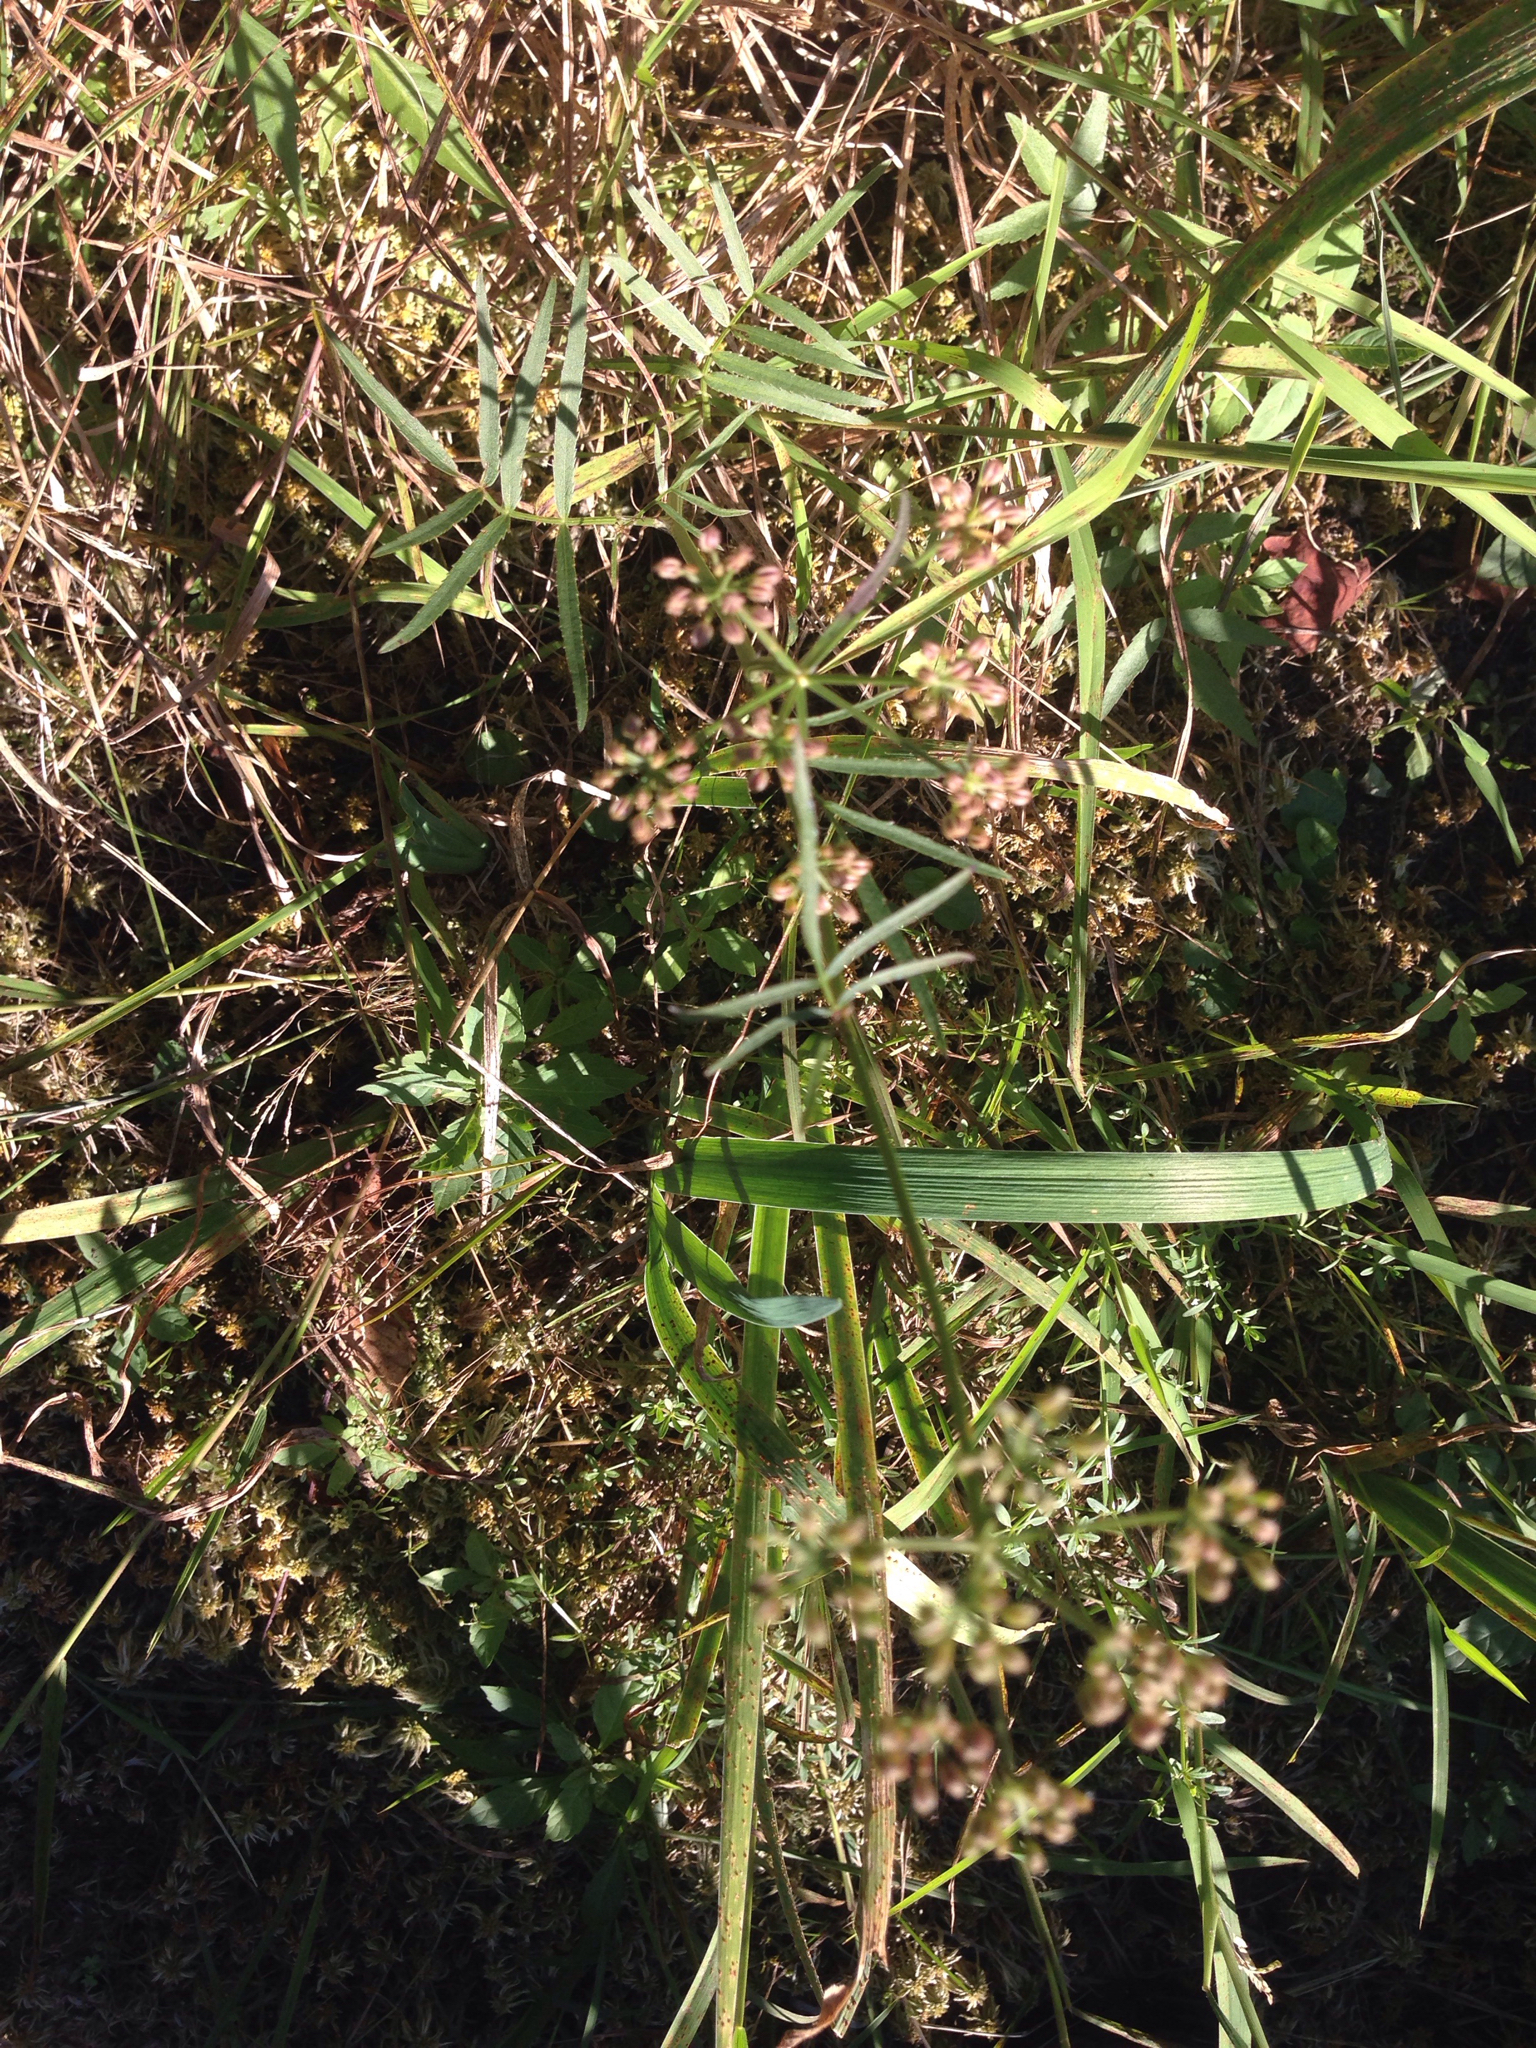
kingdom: Plantae
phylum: Tracheophyta
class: Magnoliopsida
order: Apiales
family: Apiaceae
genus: Sium
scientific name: Sium suave
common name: Hemlock water-parsnip
